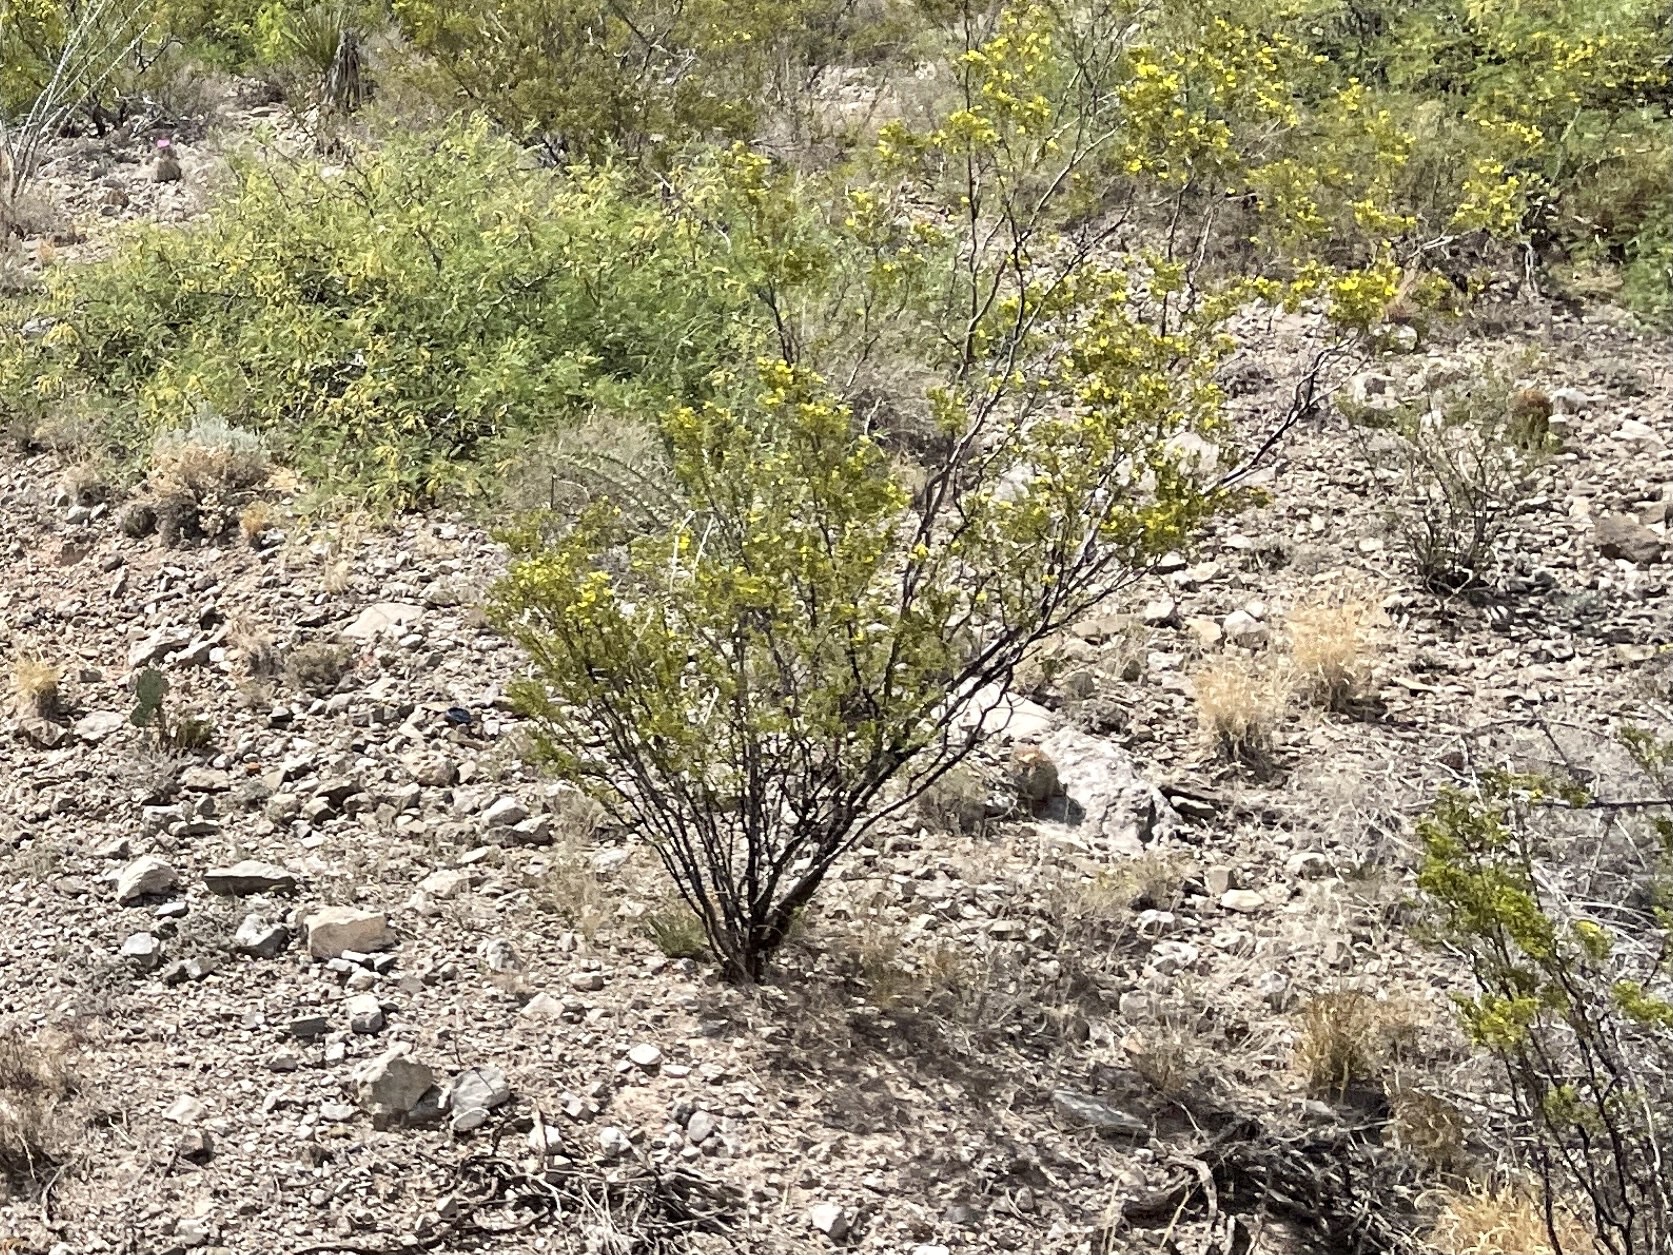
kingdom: Plantae
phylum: Tracheophyta
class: Magnoliopsida
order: Zygophyllales
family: Zygophyllaceae
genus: Larrea
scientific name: Larrea tridentata
